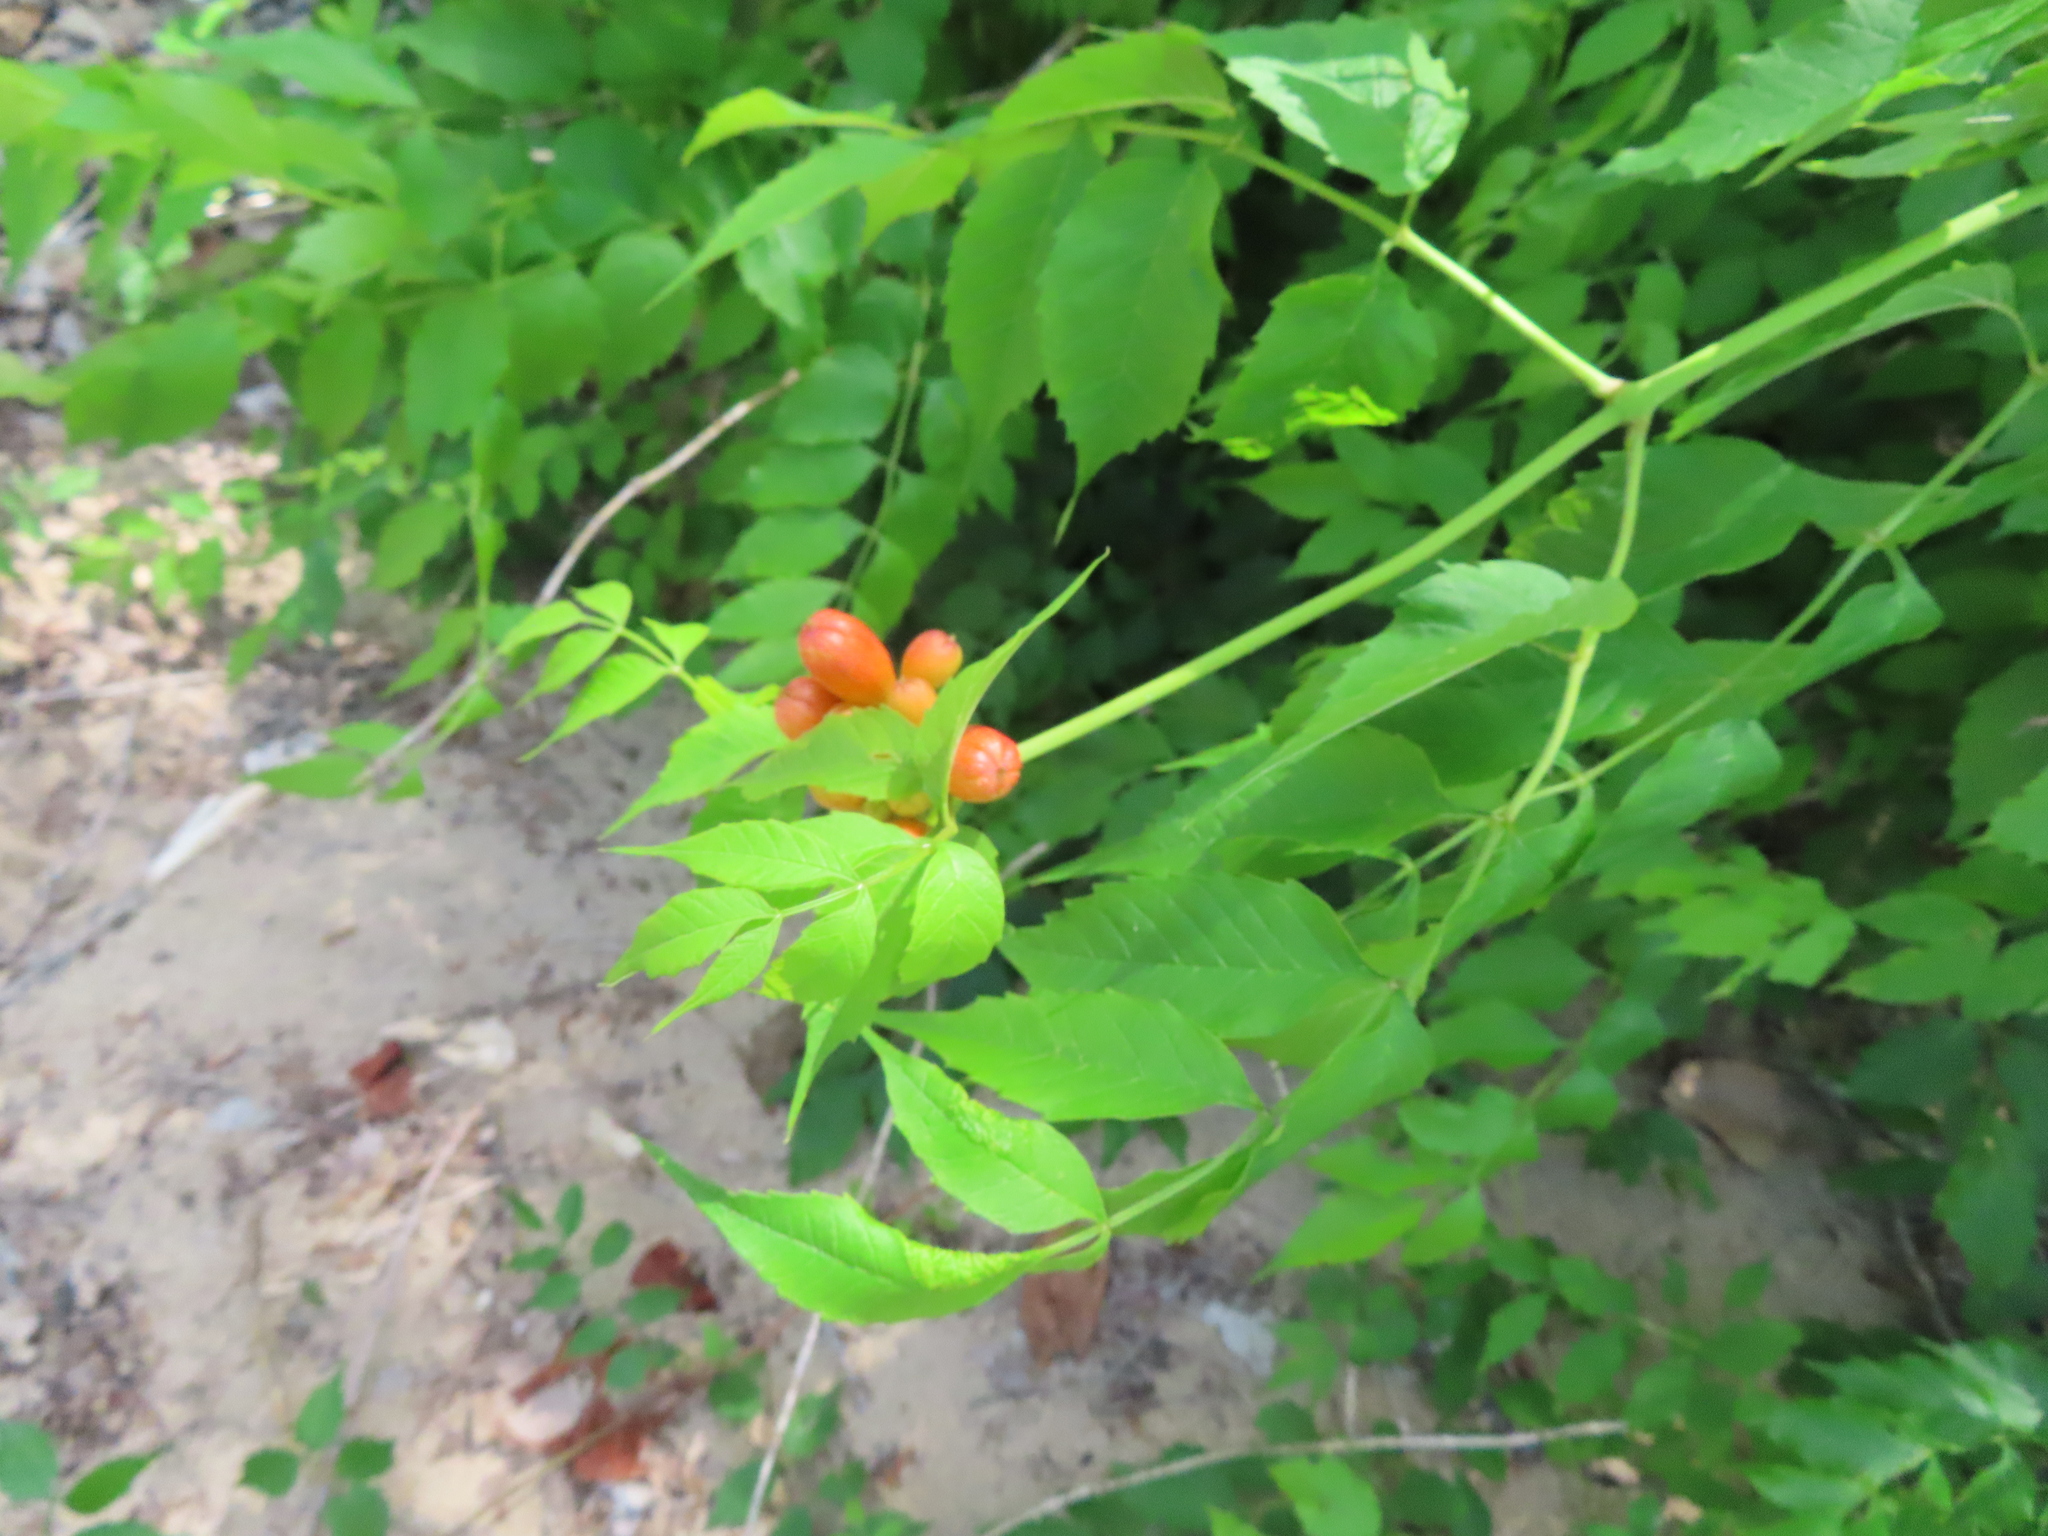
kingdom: Plantae
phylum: Tracheophyta
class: Magnoliopsida
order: Lamiales
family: Bignoniaceae
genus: Campsis
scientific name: Campsis radicans
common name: Trumpet-creeper
